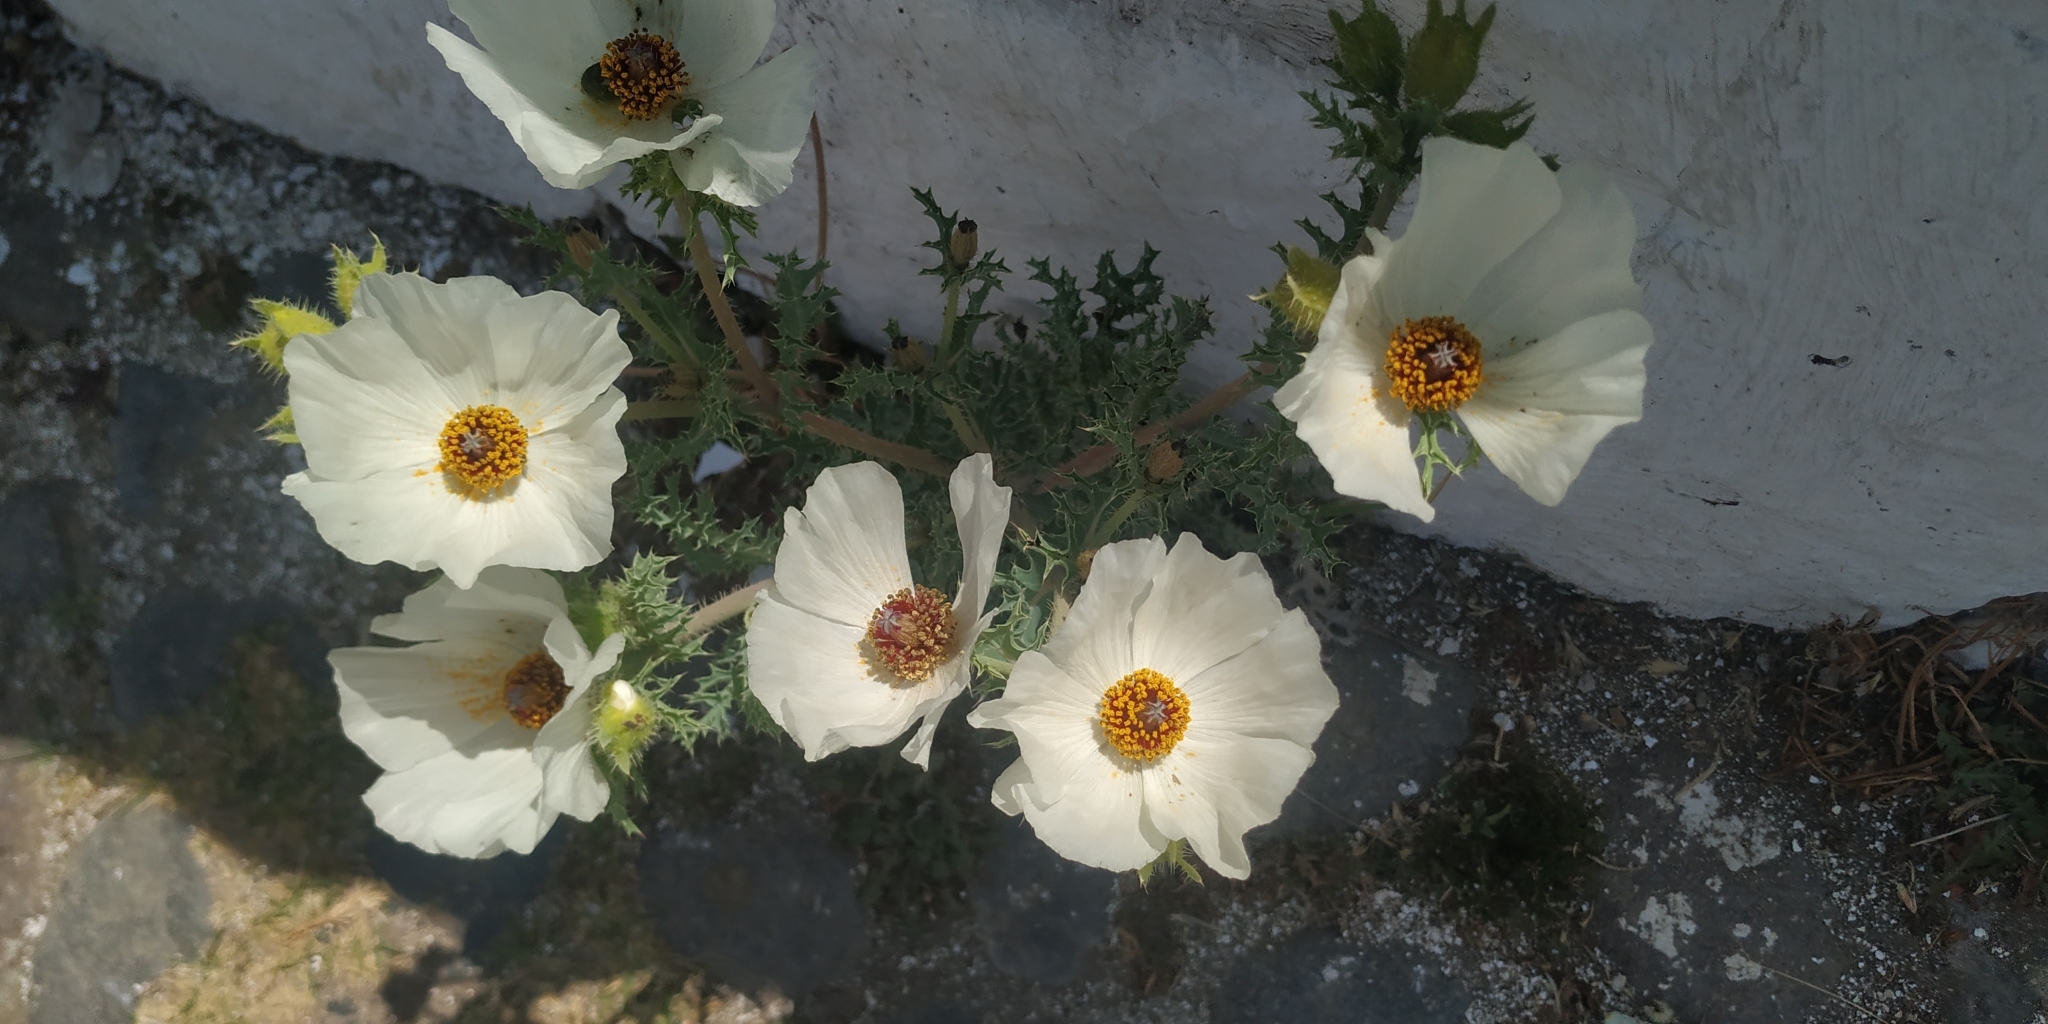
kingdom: Plantae
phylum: Tracheophyta
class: Magnoliopsida
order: Ranunculales
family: Papaveraceae
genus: Argemone
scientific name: Argemone platyceras
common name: Crested-poppy
